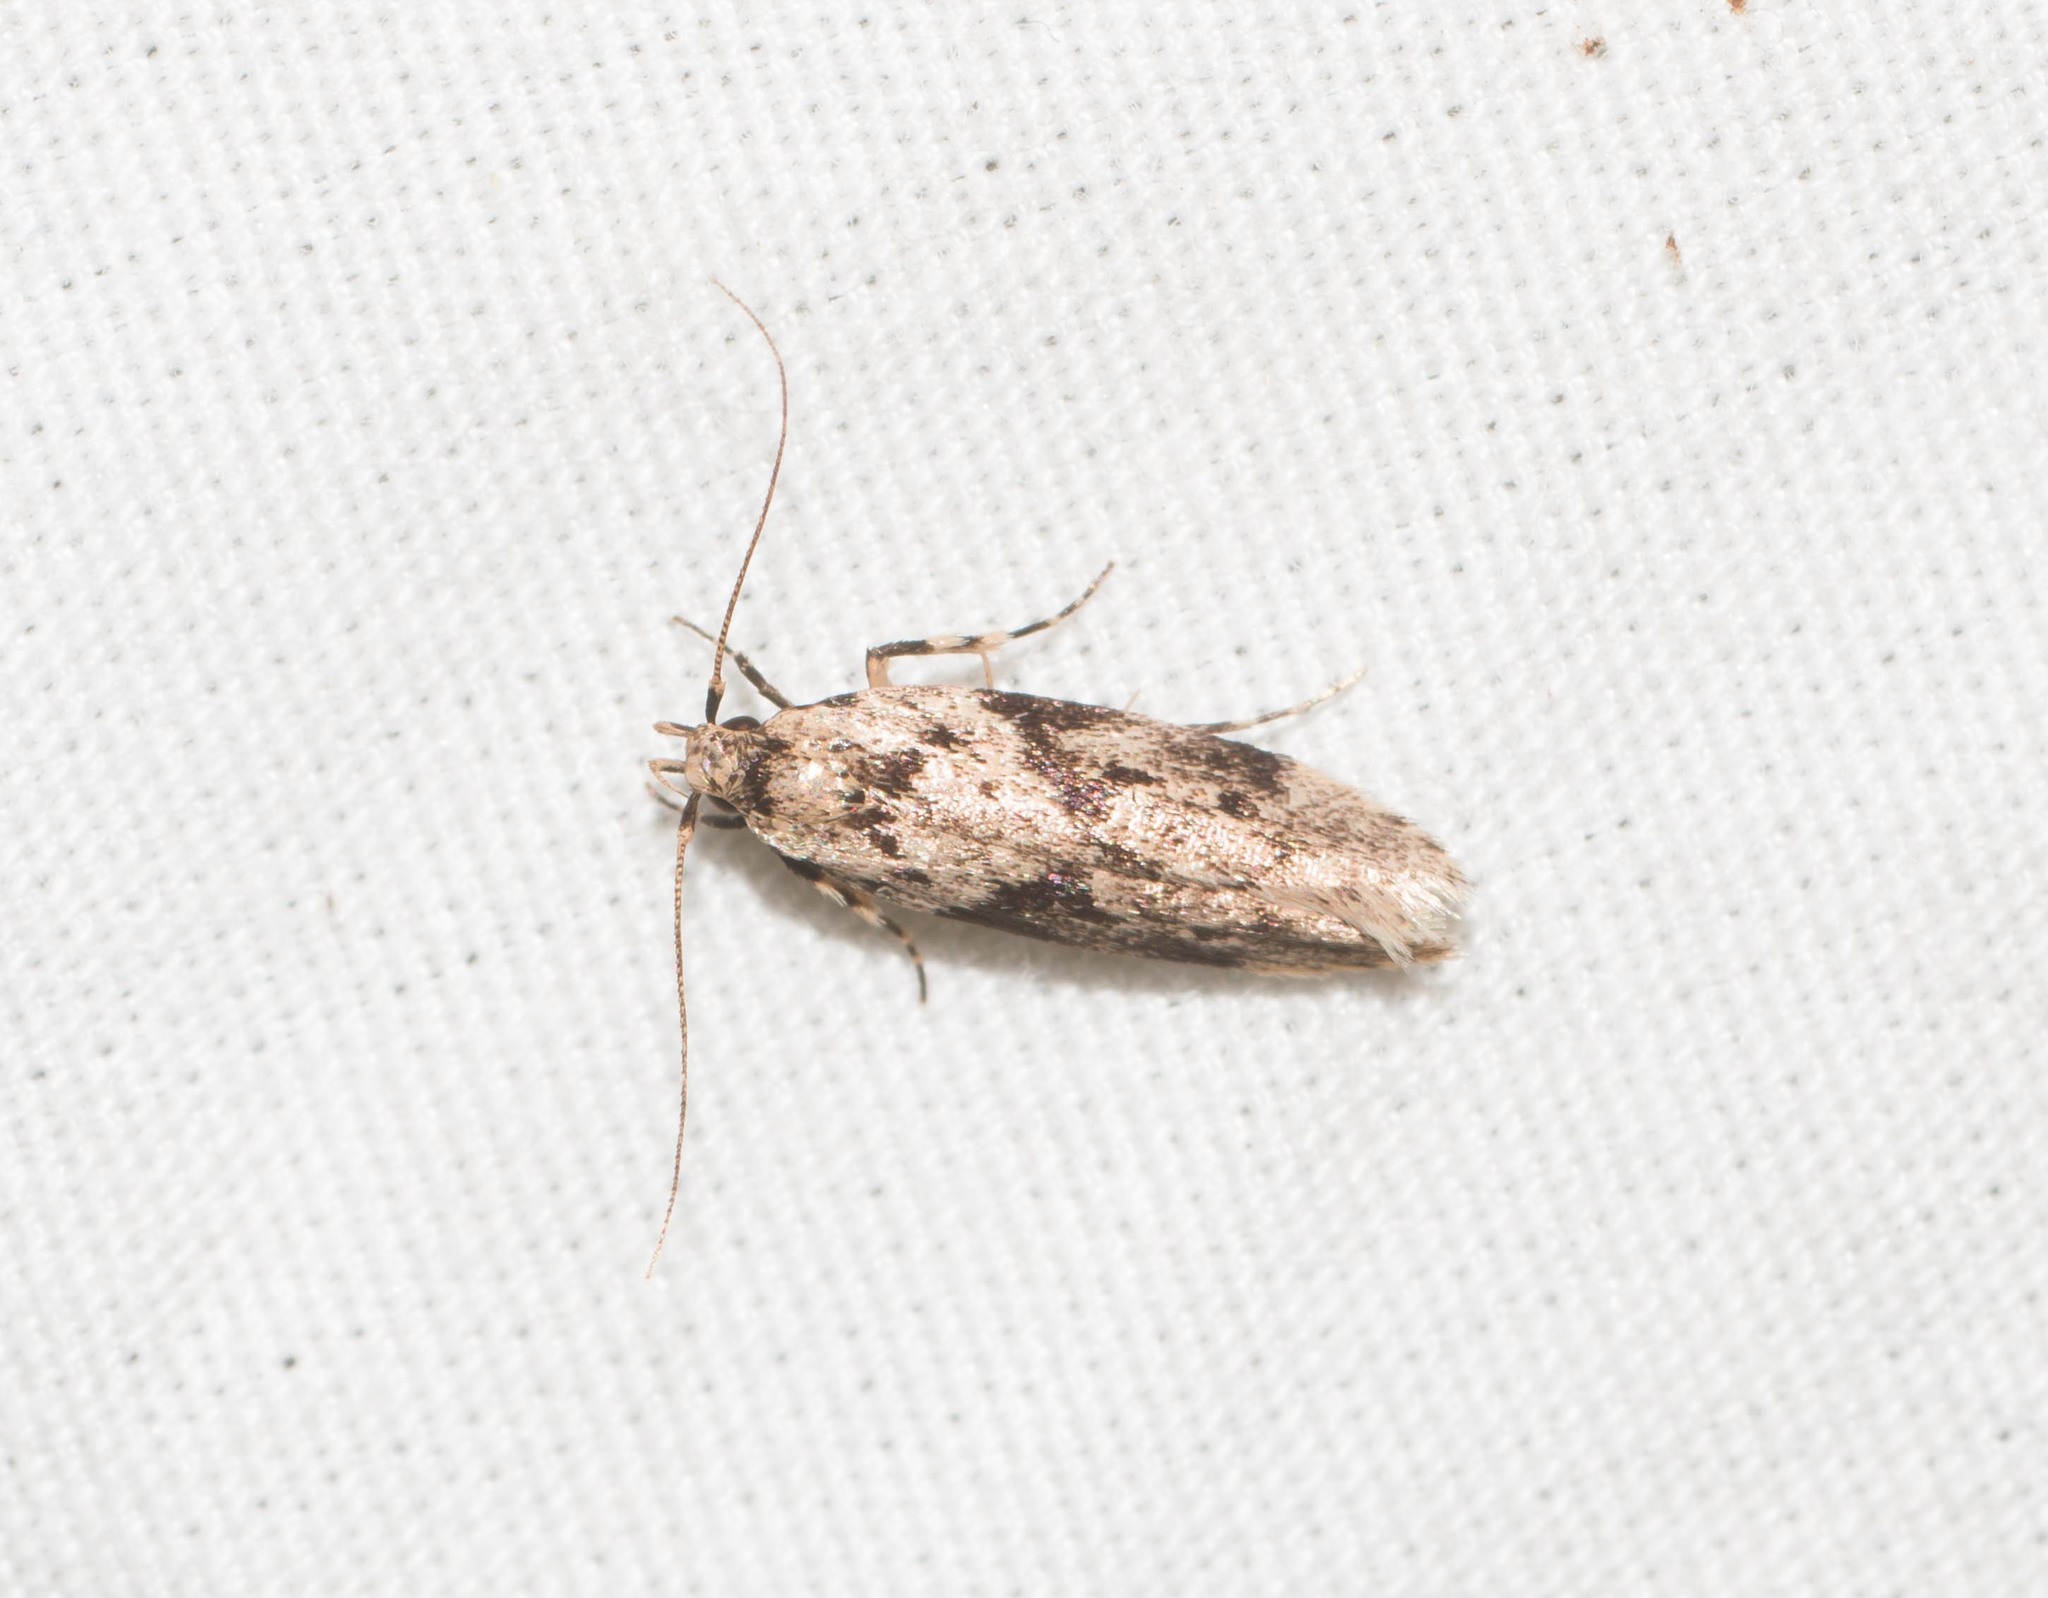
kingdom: Animalia
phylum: Arthropoda
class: Insecta
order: Lepidoptera
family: Cosmopterigidae
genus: Hyposmochoma
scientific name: Hyposmochoma nephelodes
